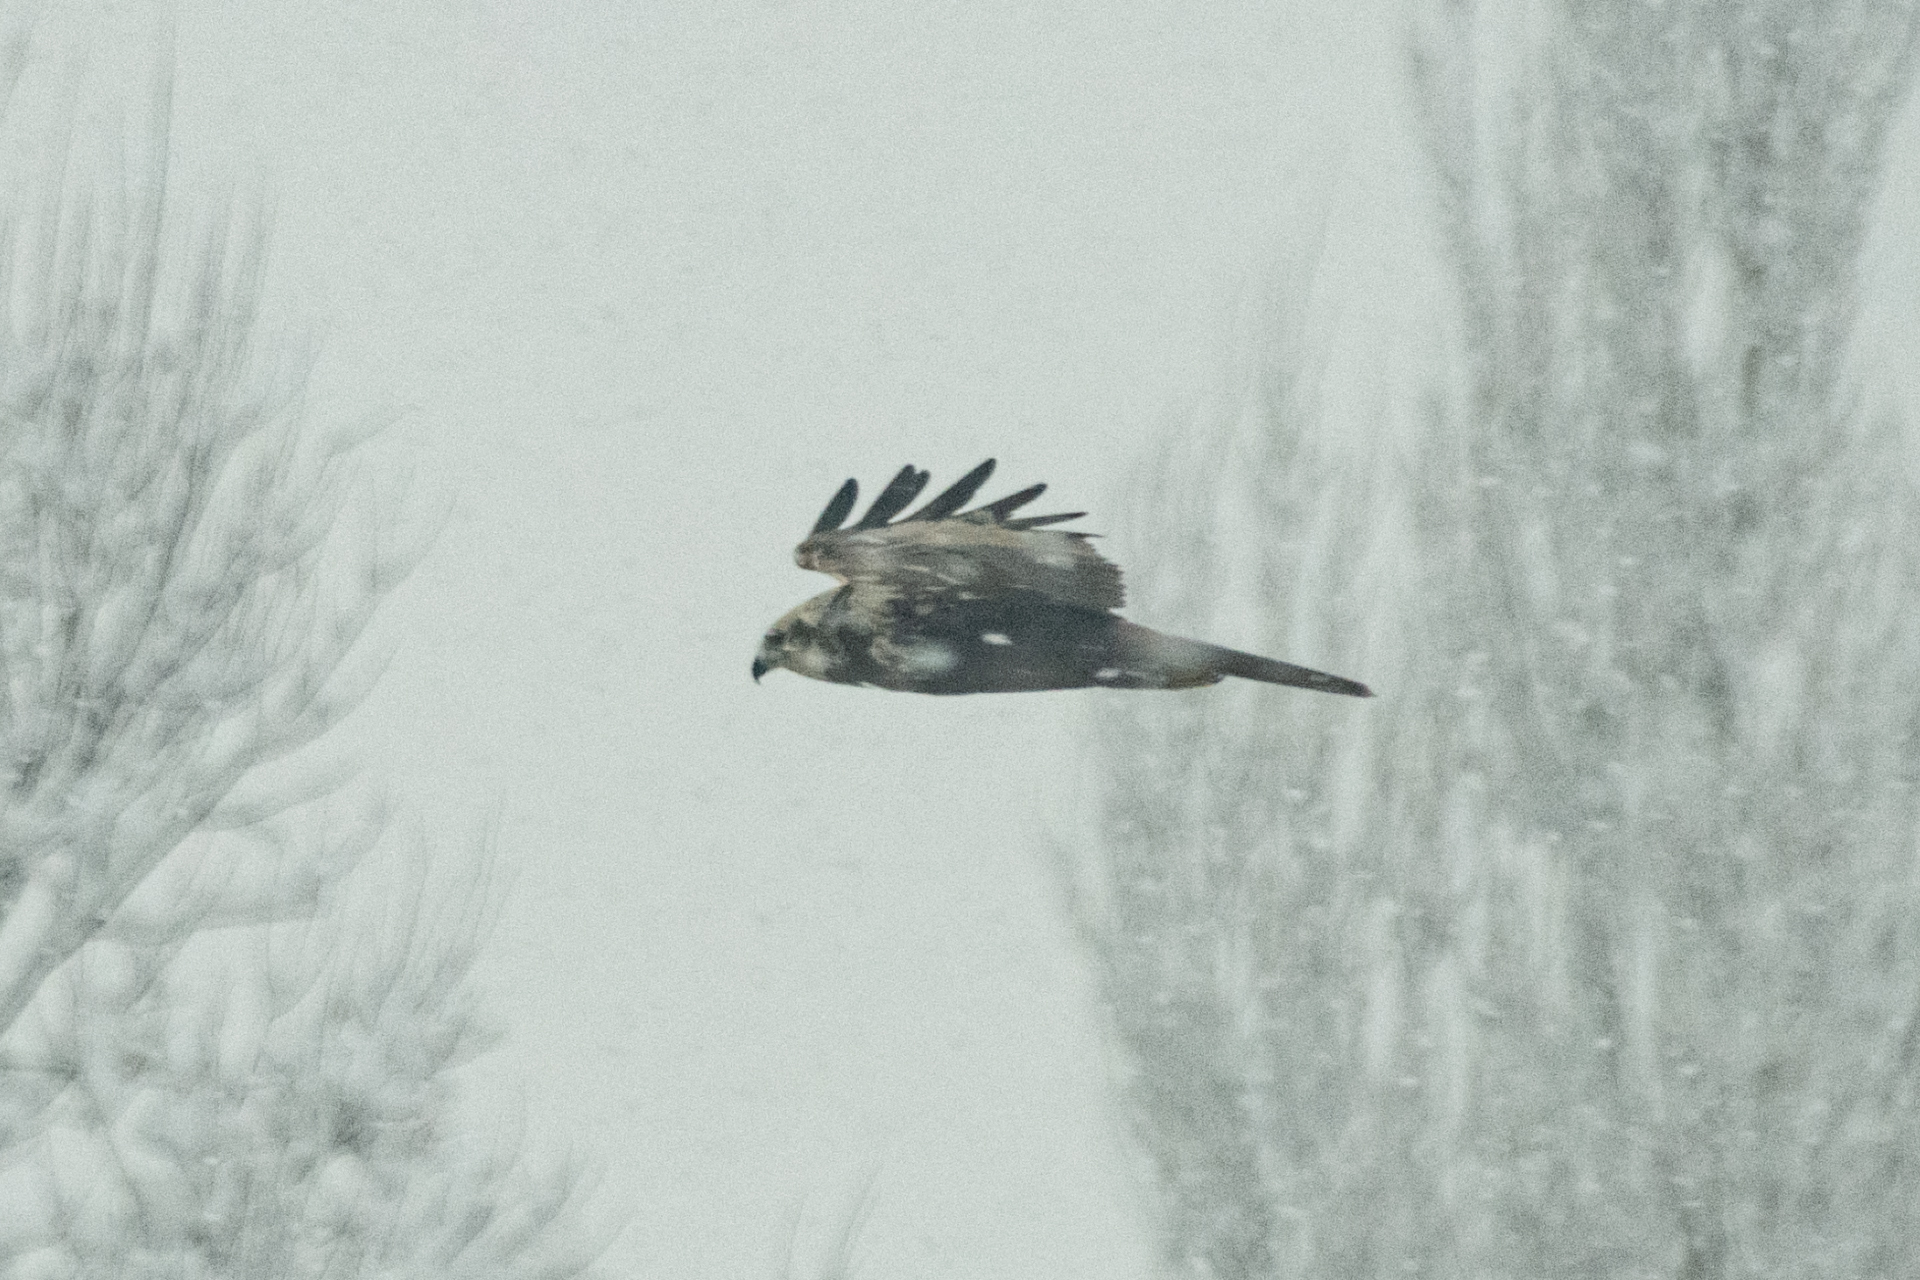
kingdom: Animalia
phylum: Chordata
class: Aves
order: Accipitriformes
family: Accipitridae
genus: Circus
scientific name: Circus aeruginosus
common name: Western marsh harrier
